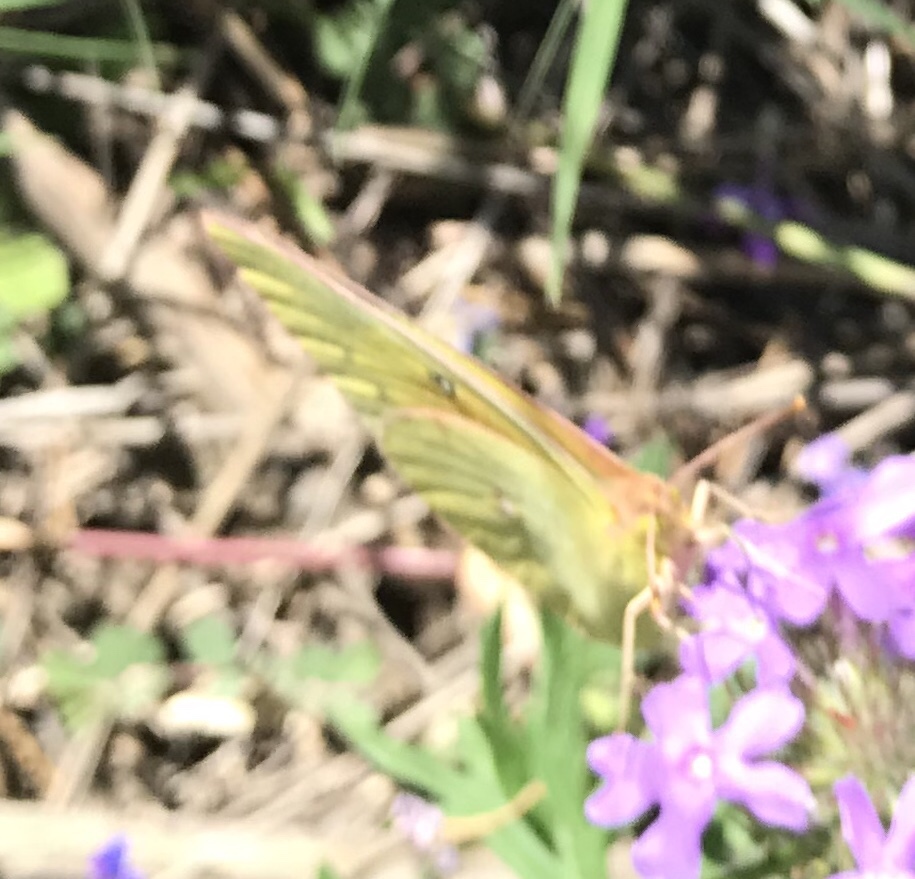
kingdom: Animalia
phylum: Arthropoda
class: Insecta
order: Lepidoptera
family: Pieridae
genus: Colias
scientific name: Colias eurytheme
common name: Alfalfa butterfly
